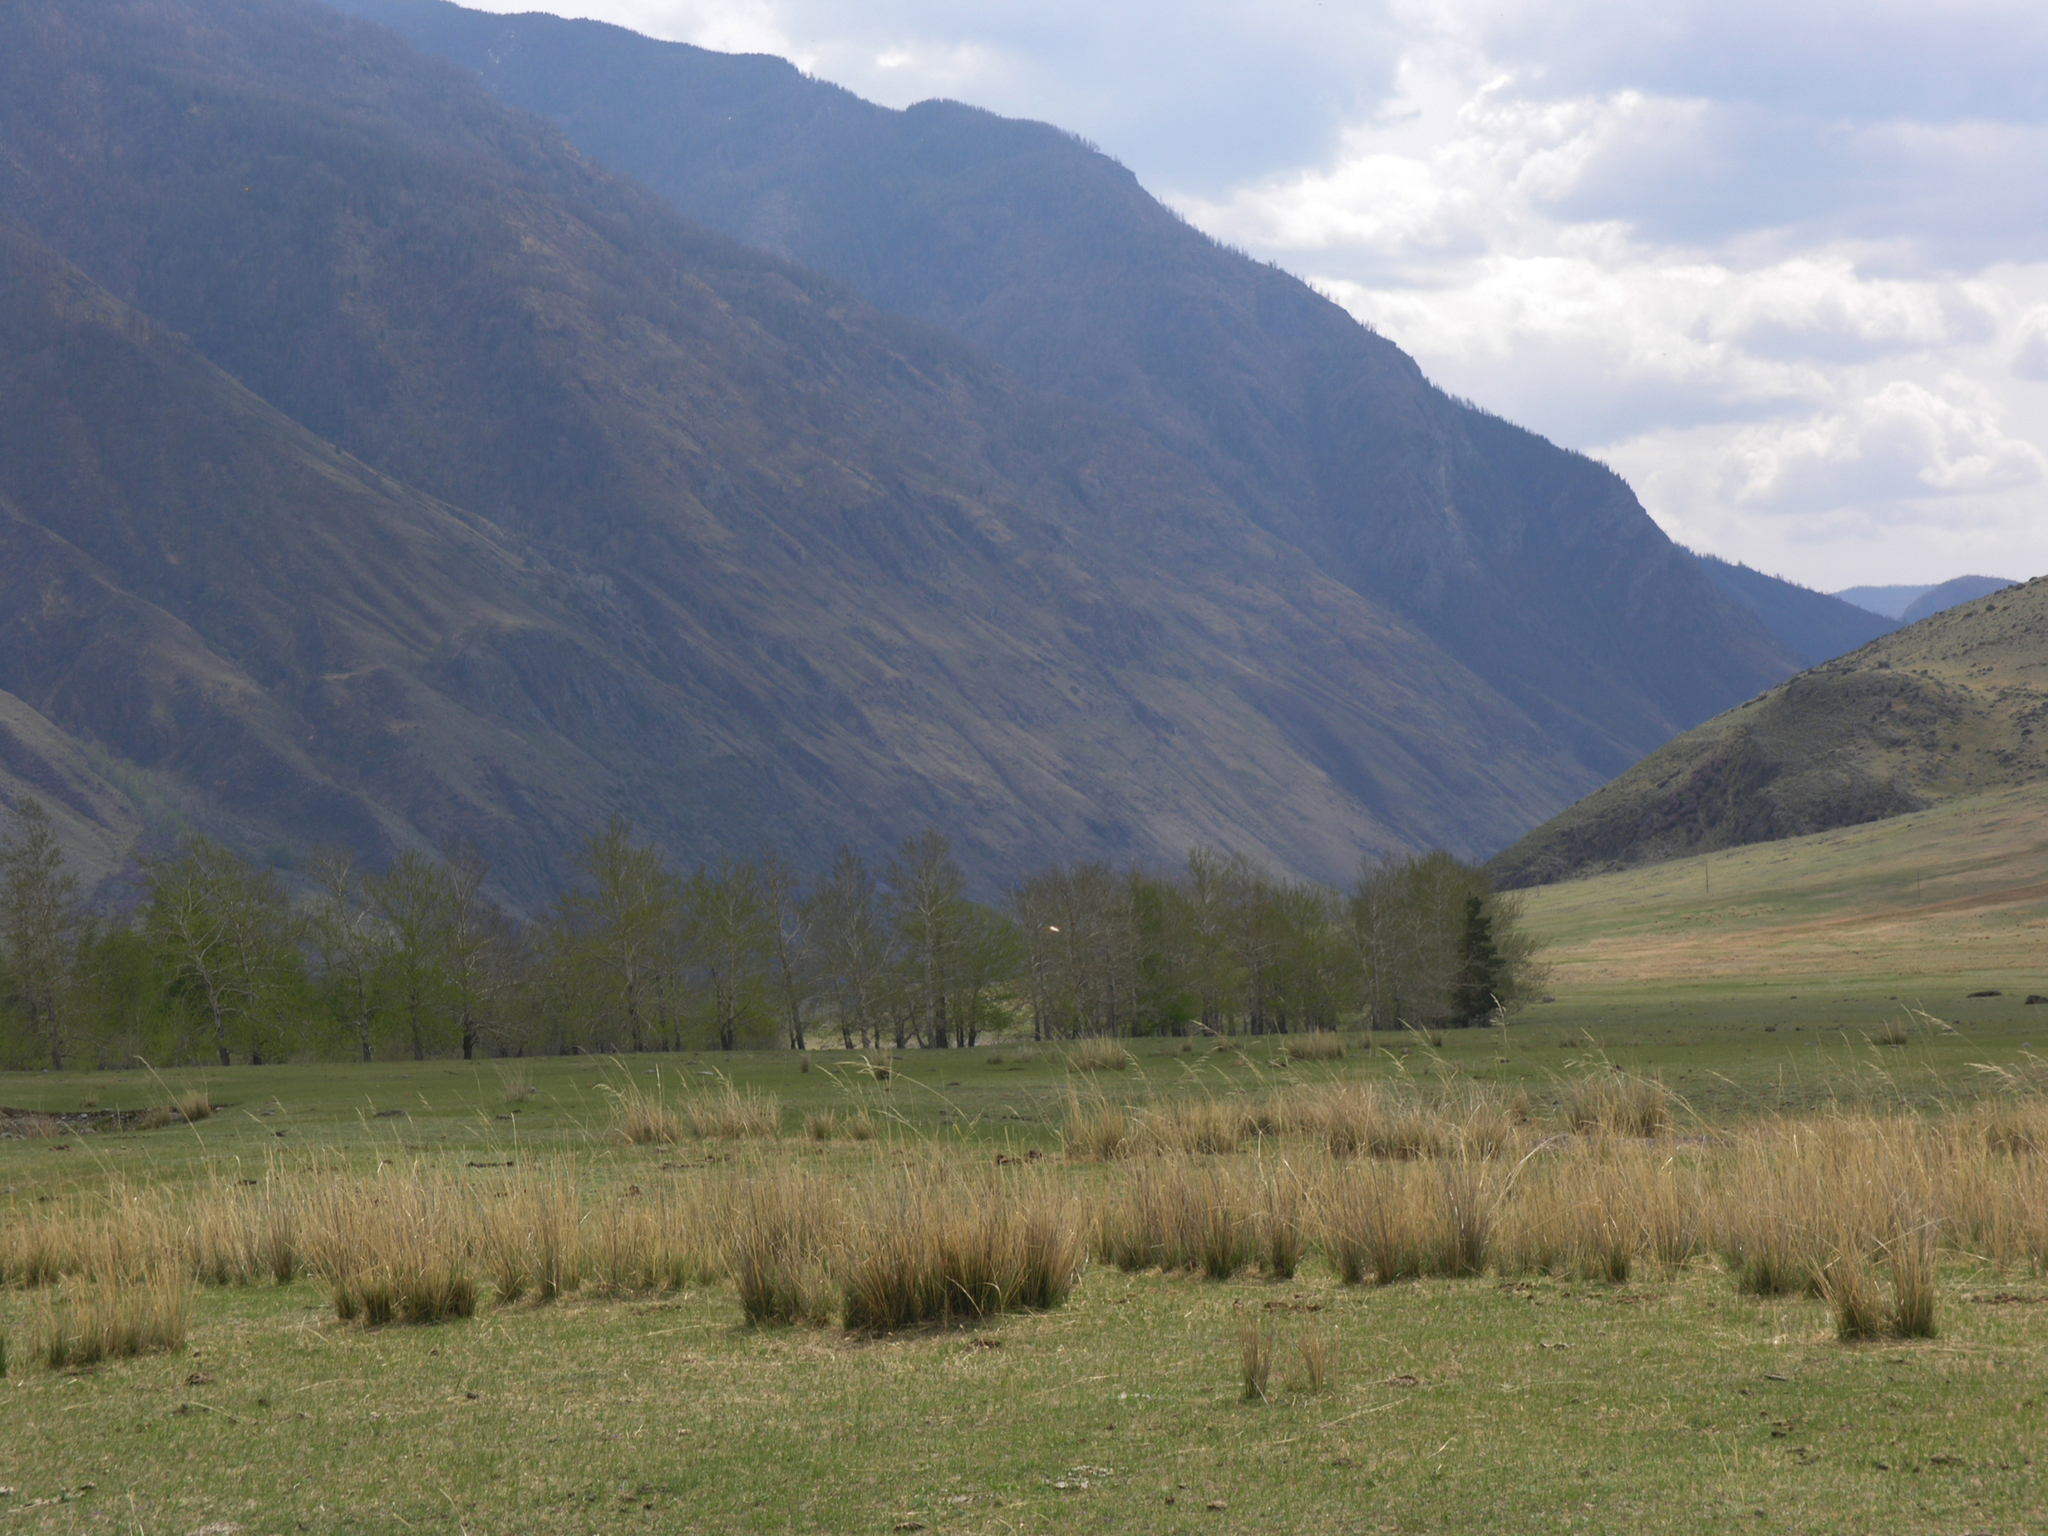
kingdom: Plantae
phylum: Tracheophyta
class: Magnoliopsida
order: Malpighiales
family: Salicaceae
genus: Populus
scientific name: Populus laurifolia
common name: Laurel-leaf poplar
